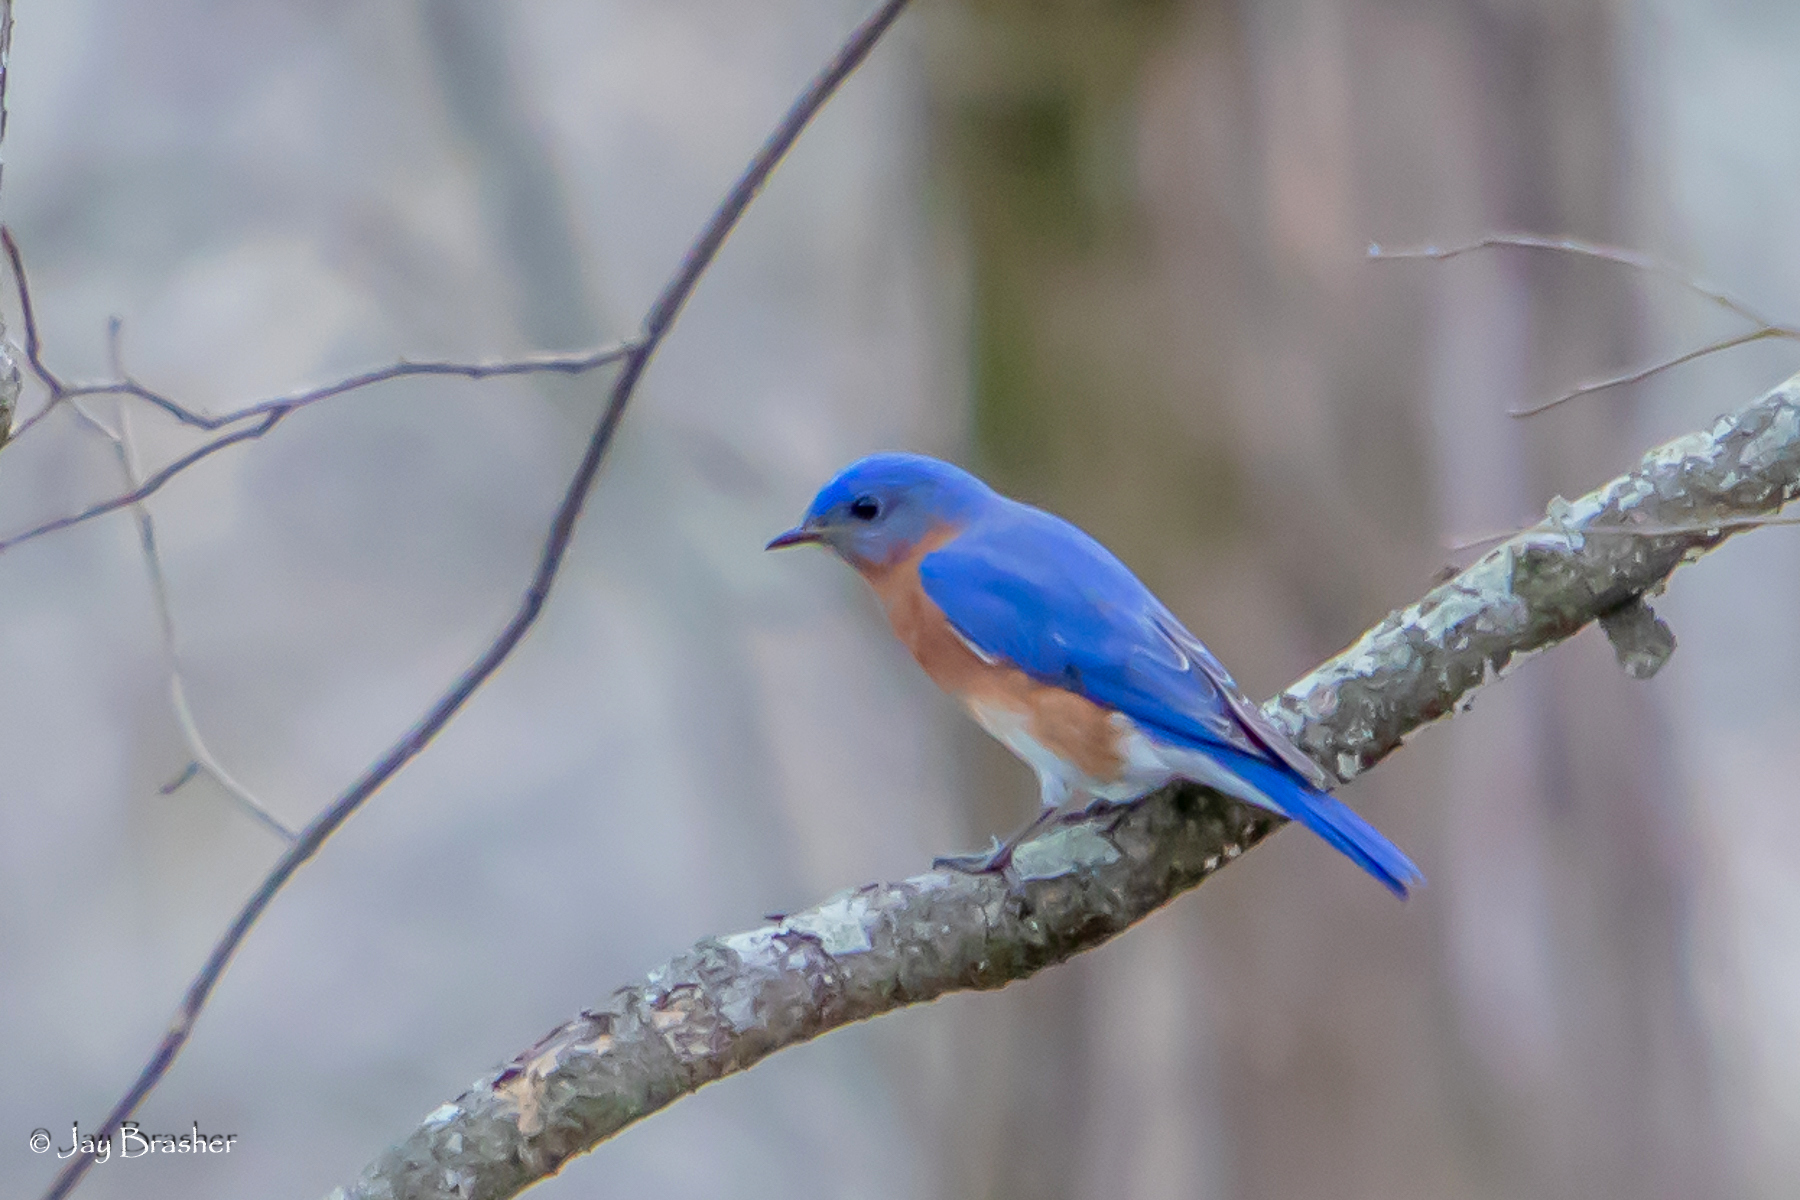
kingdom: Animalia
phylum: Chordata
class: Aves
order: Passeriformes
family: Turdidae
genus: Sialia
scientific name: Sialia sialis
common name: Eastern bluebird
